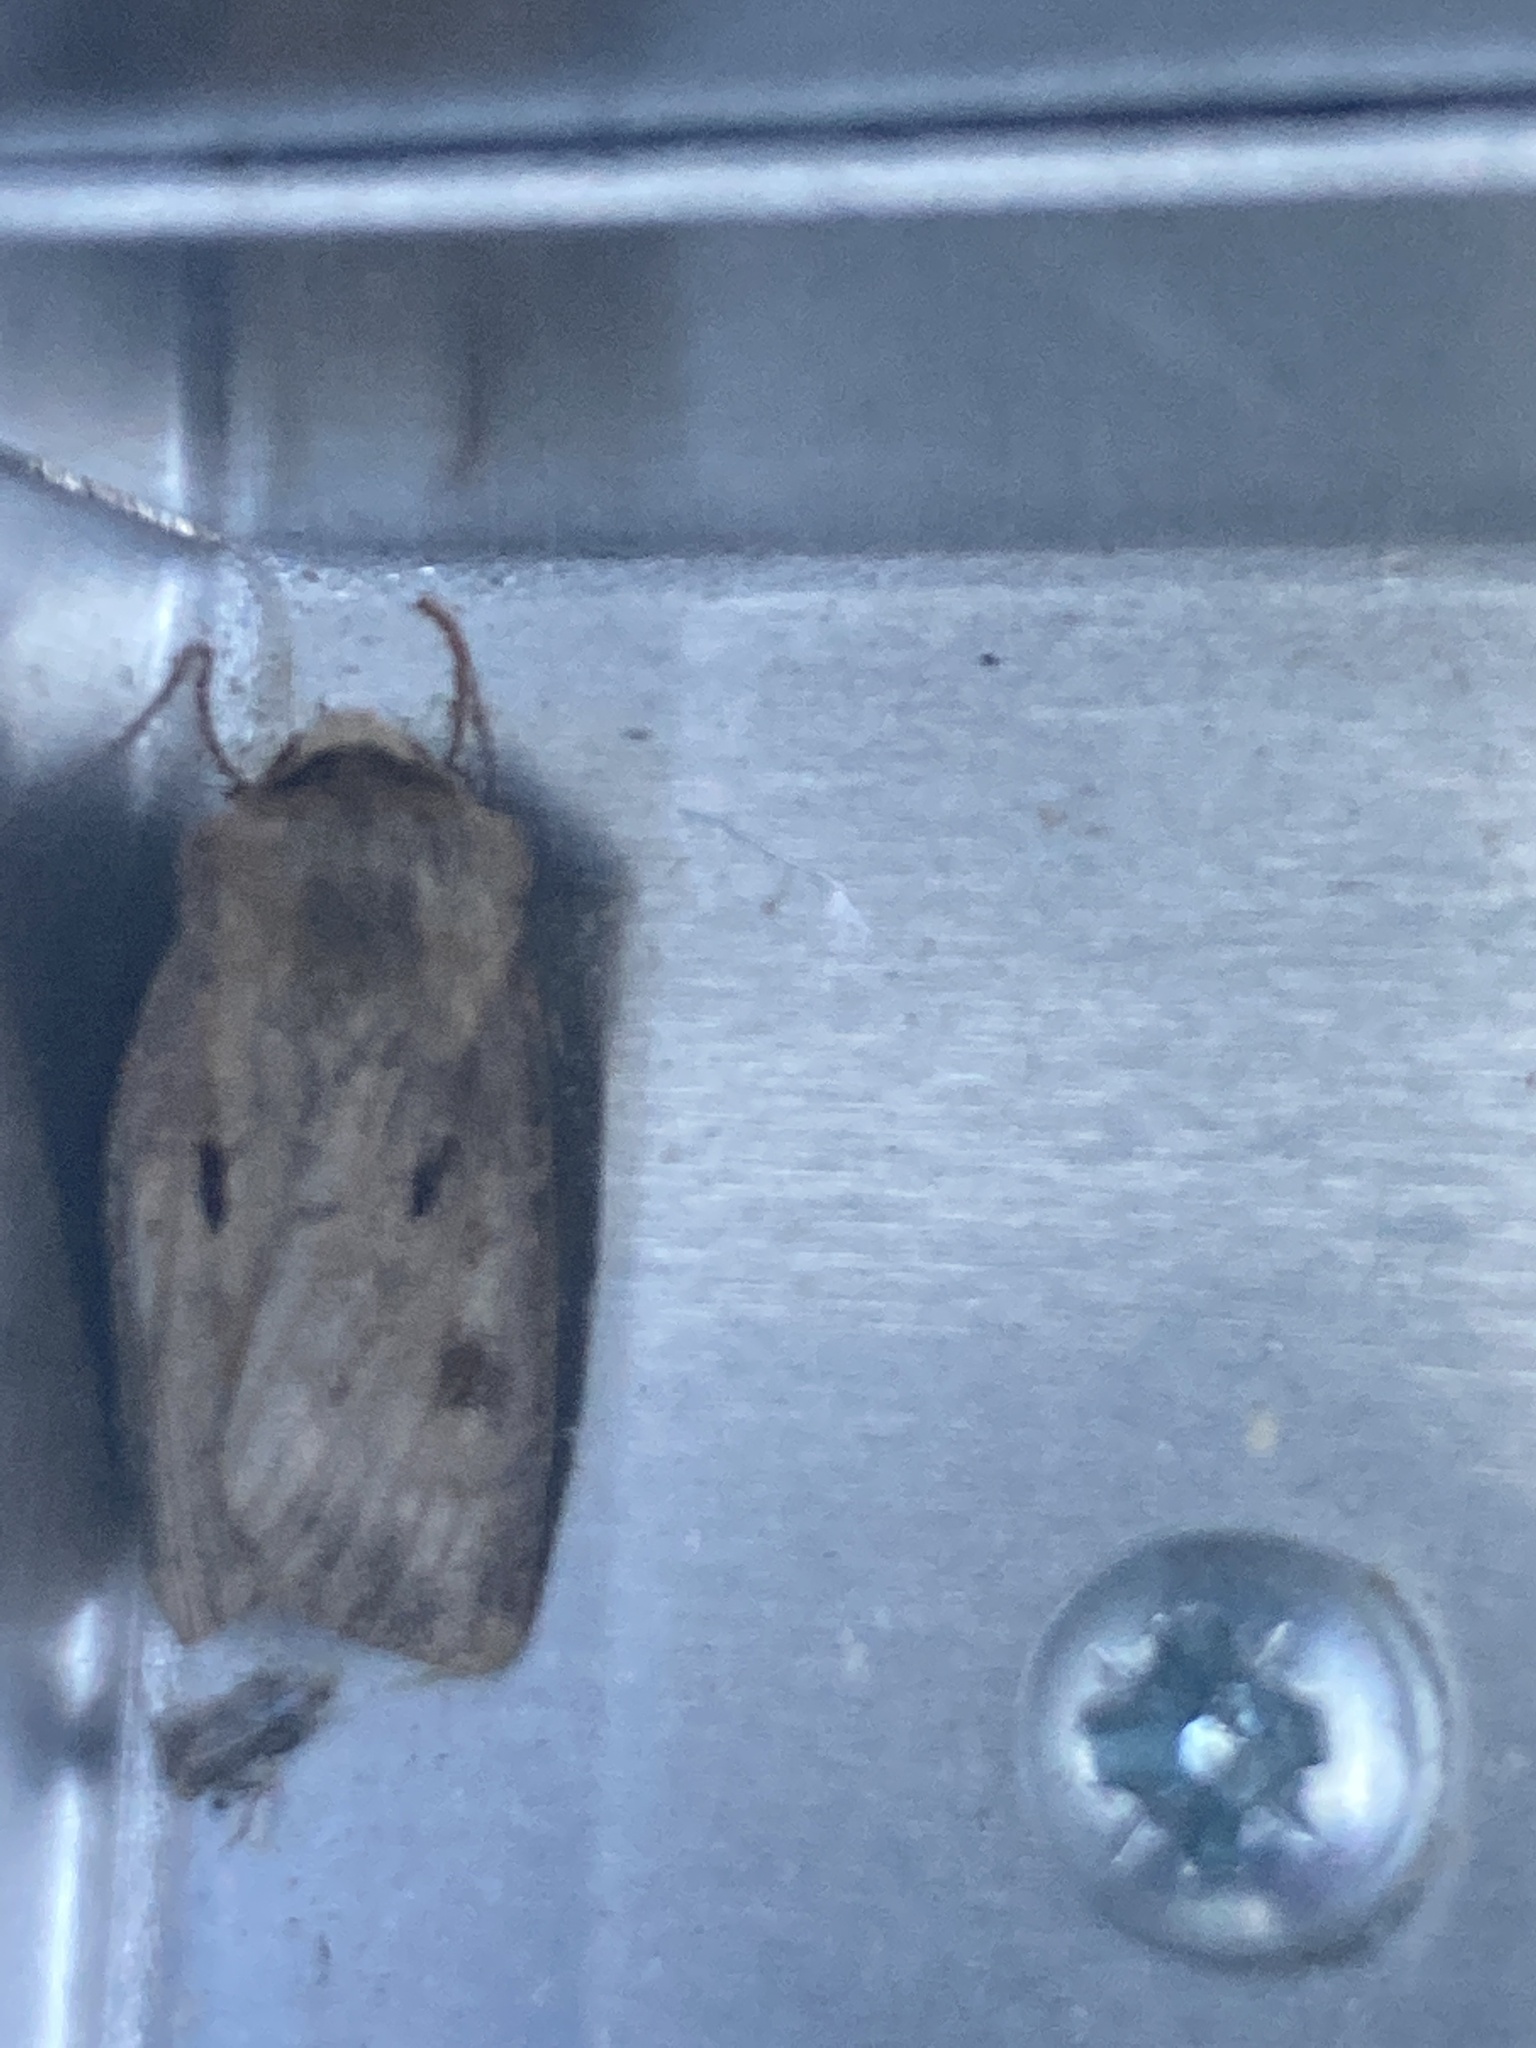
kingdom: Animalia
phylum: Arthropoda
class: Insecta
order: Lepidoptera
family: Noctuidae
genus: Agrotis
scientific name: Agrotis exclamationis
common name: Heart and dart
